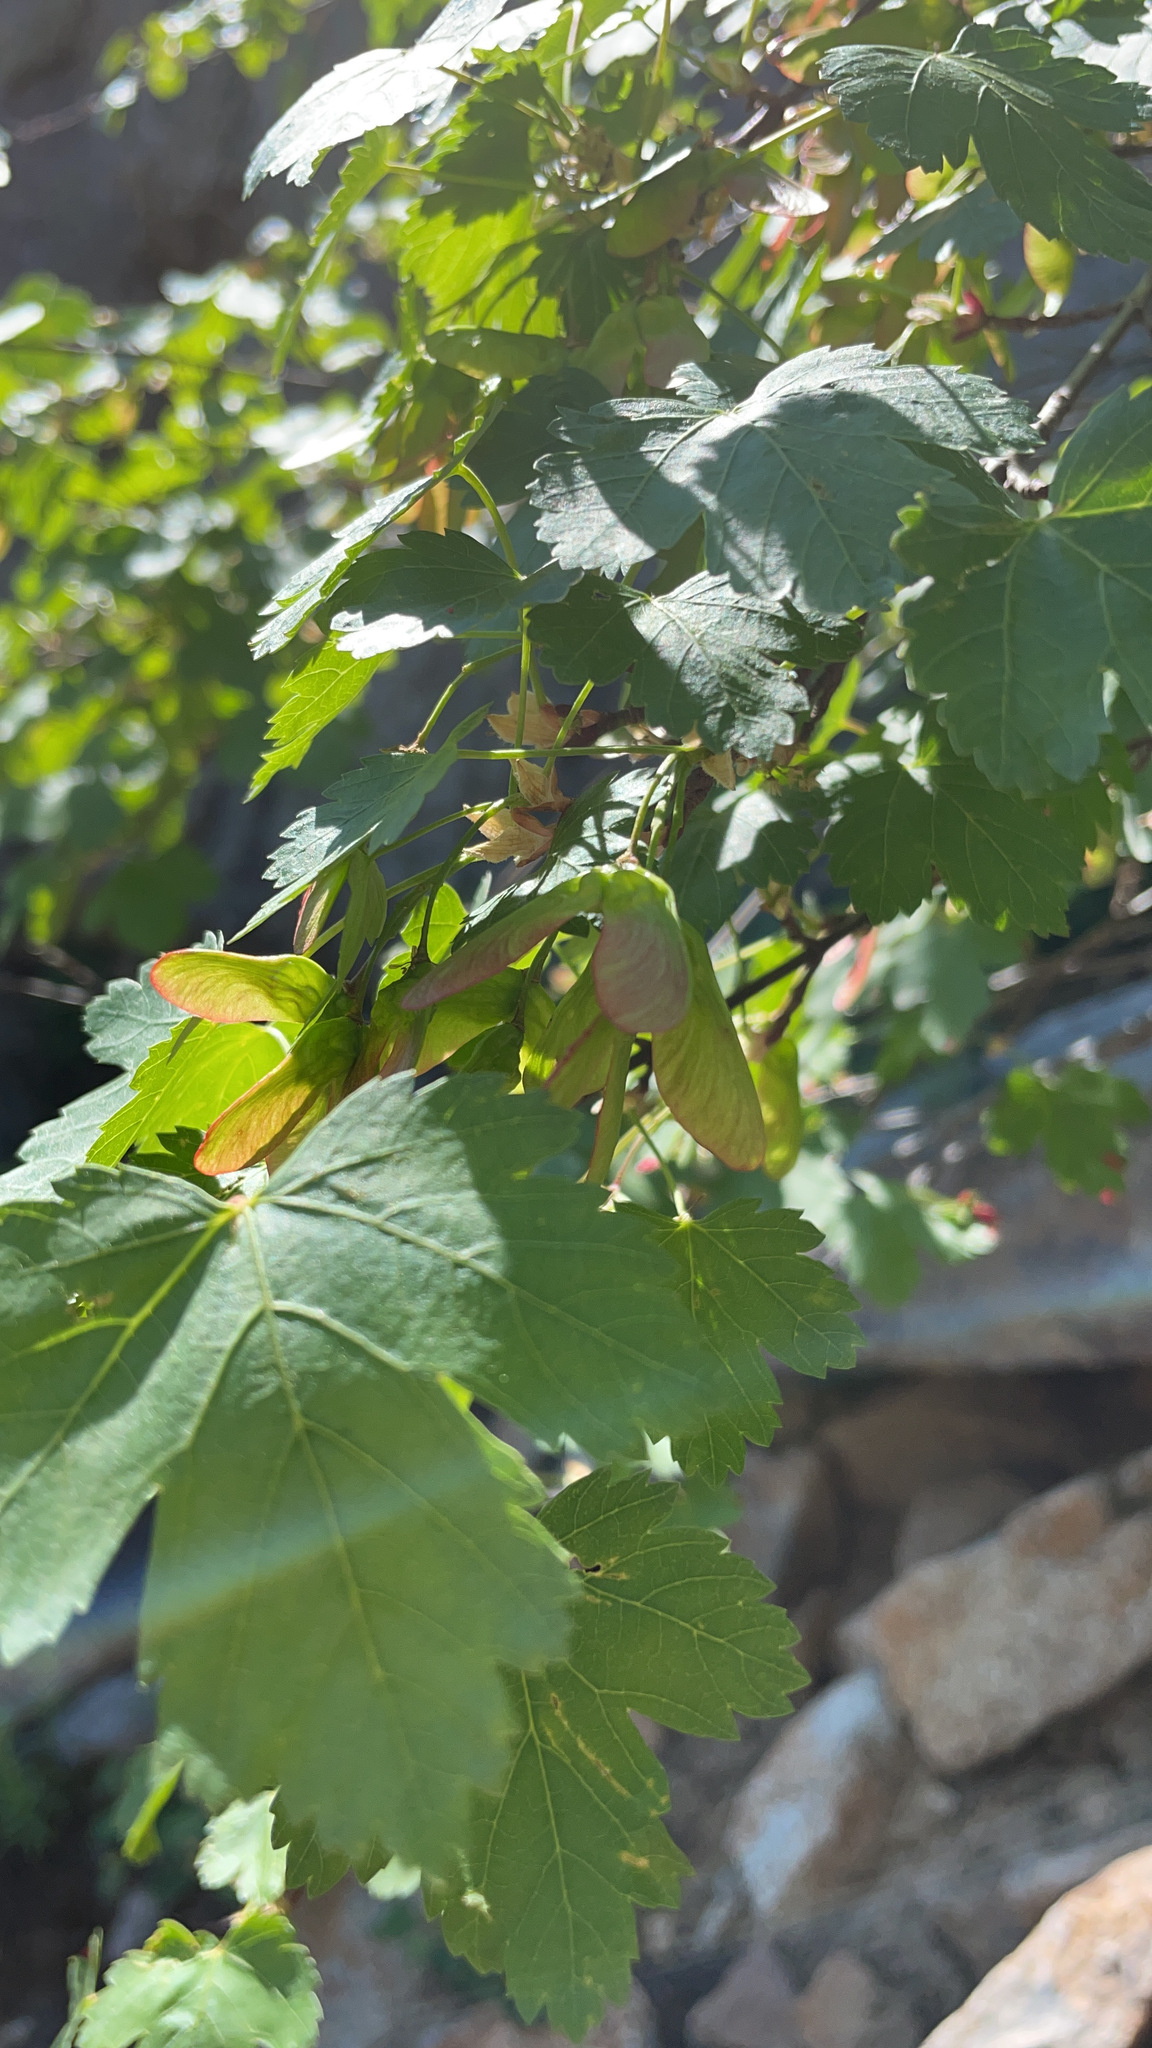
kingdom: Plantae
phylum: Tracheophyta
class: Magnoliopsida
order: Sapindales
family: Sapindaceae
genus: Acer
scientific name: Acer glabrum
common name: Rocky mountain maple
